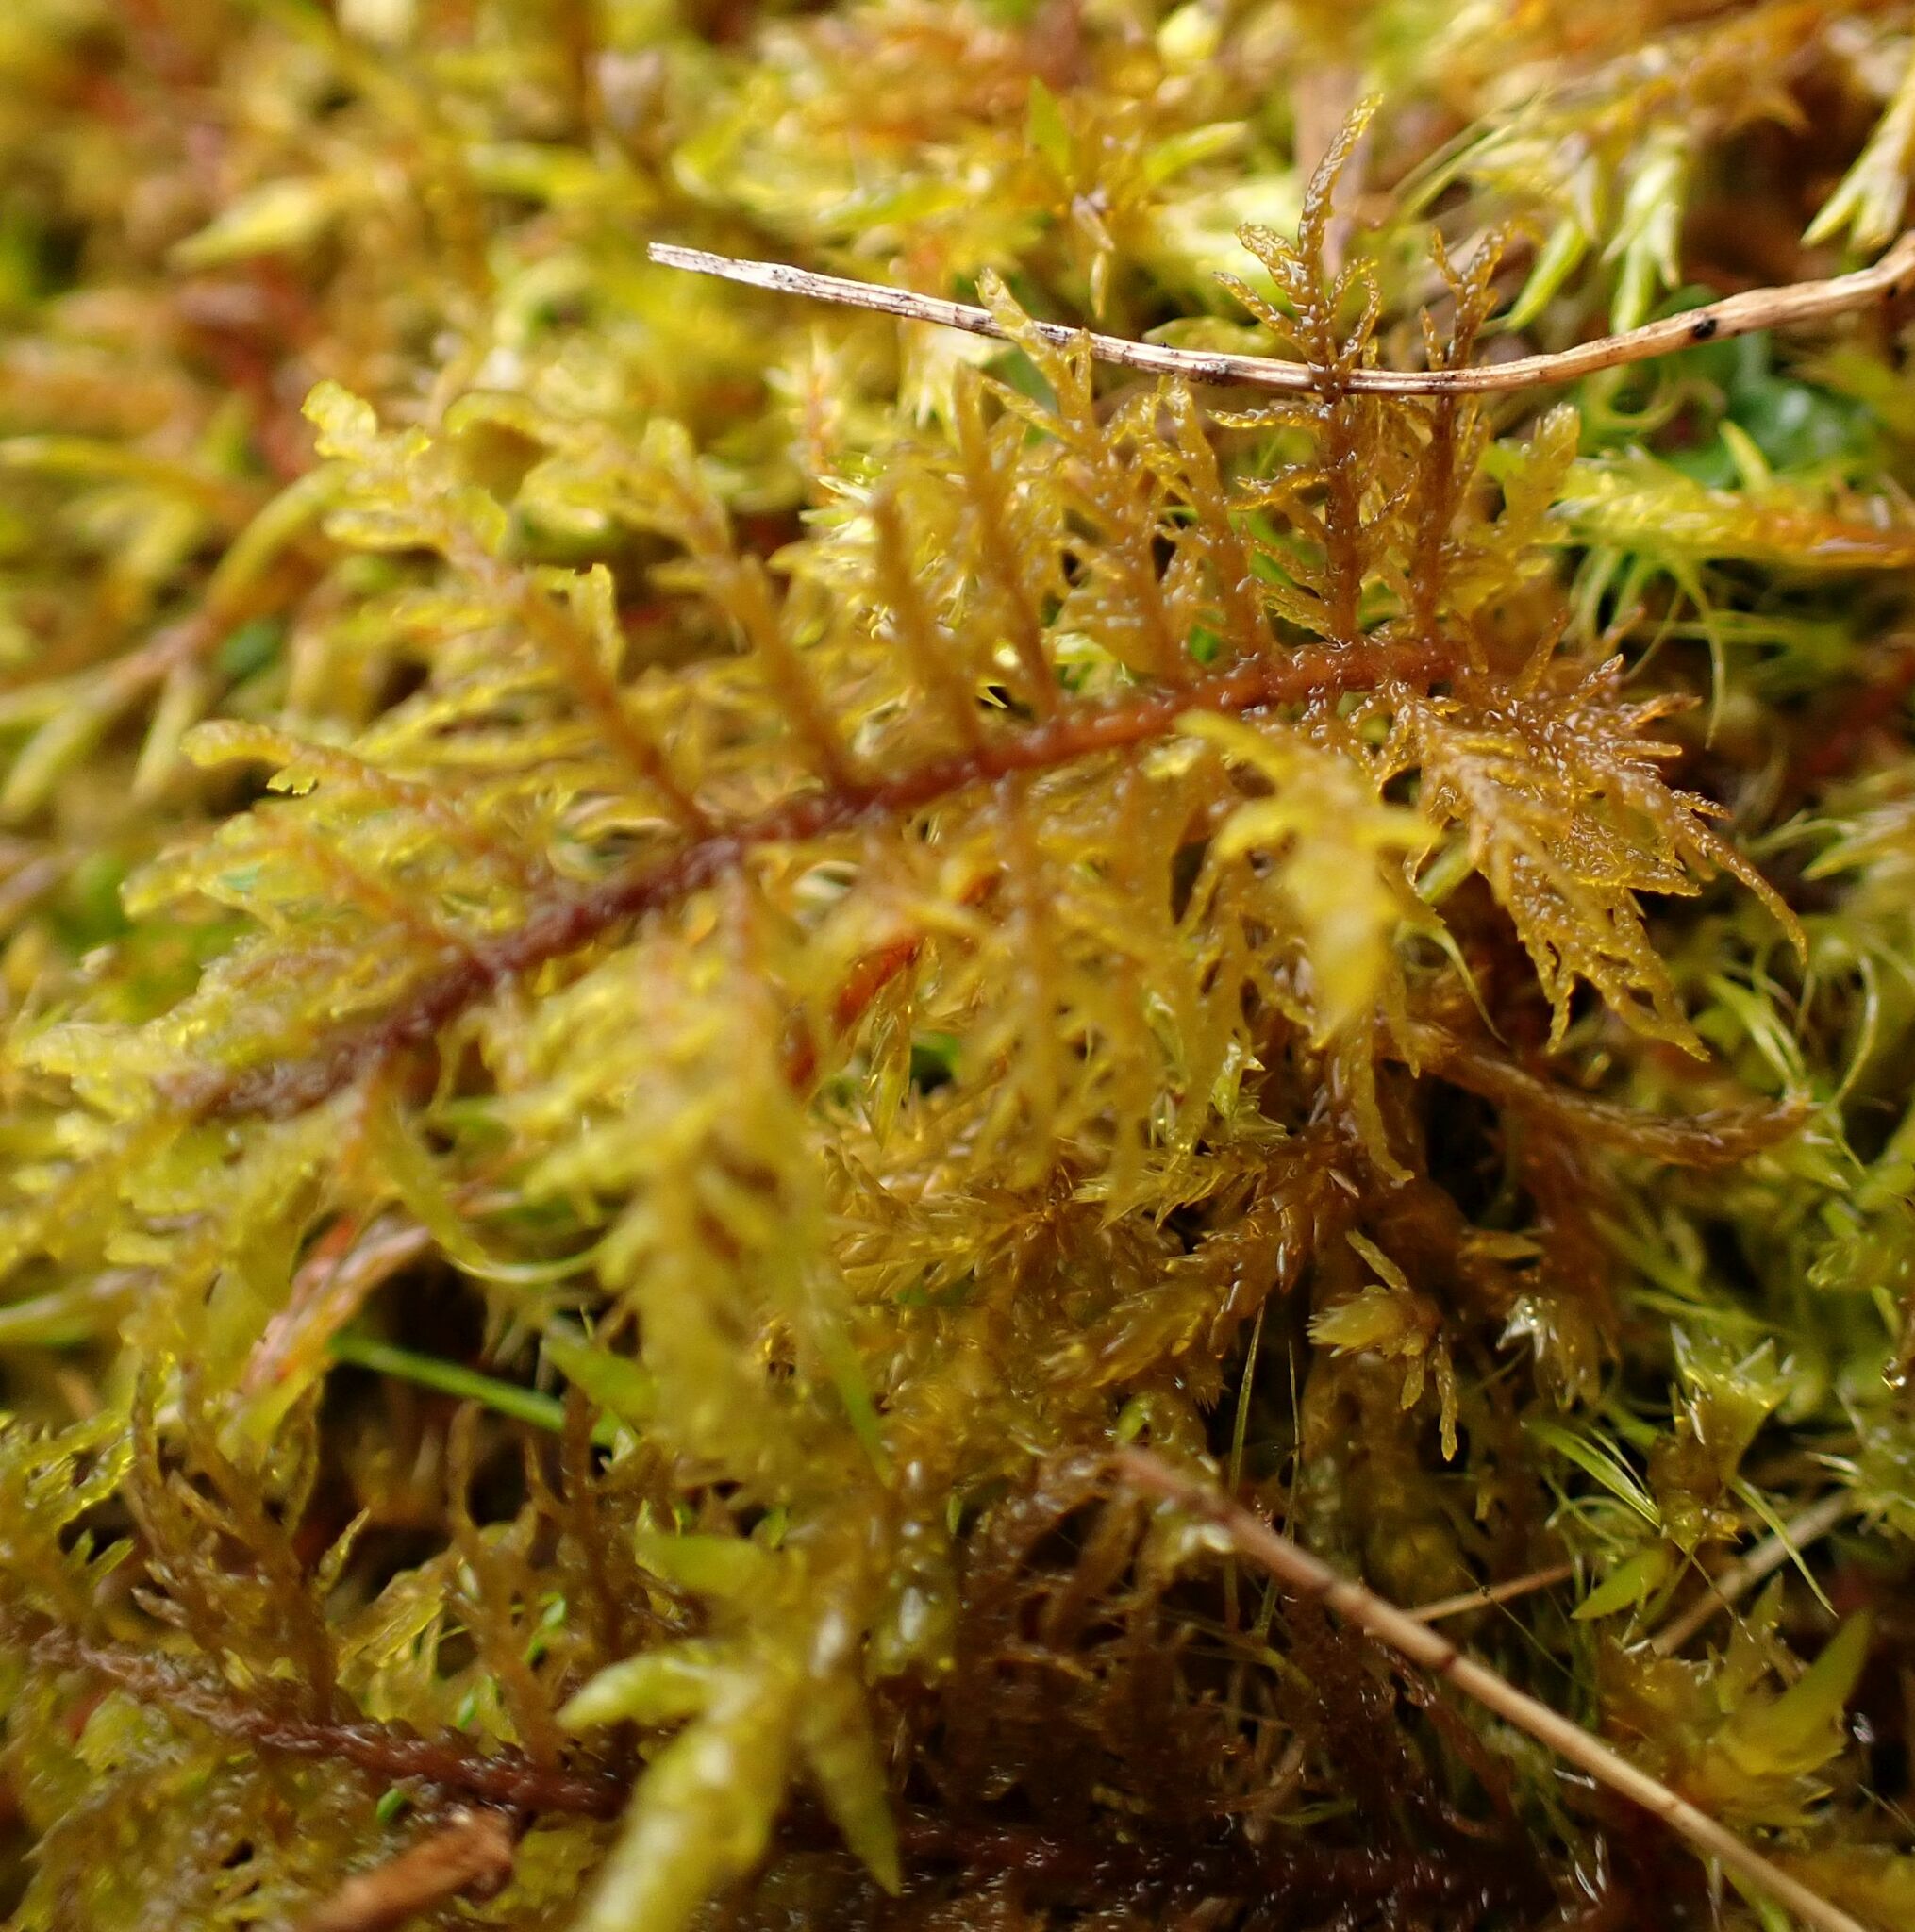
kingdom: Plantae
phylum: Bryophyta
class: Bryopsida
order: Hypnales
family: Hylocomiaceae
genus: Hylocomium
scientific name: Hylocomium splendens
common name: Stairstep moss
